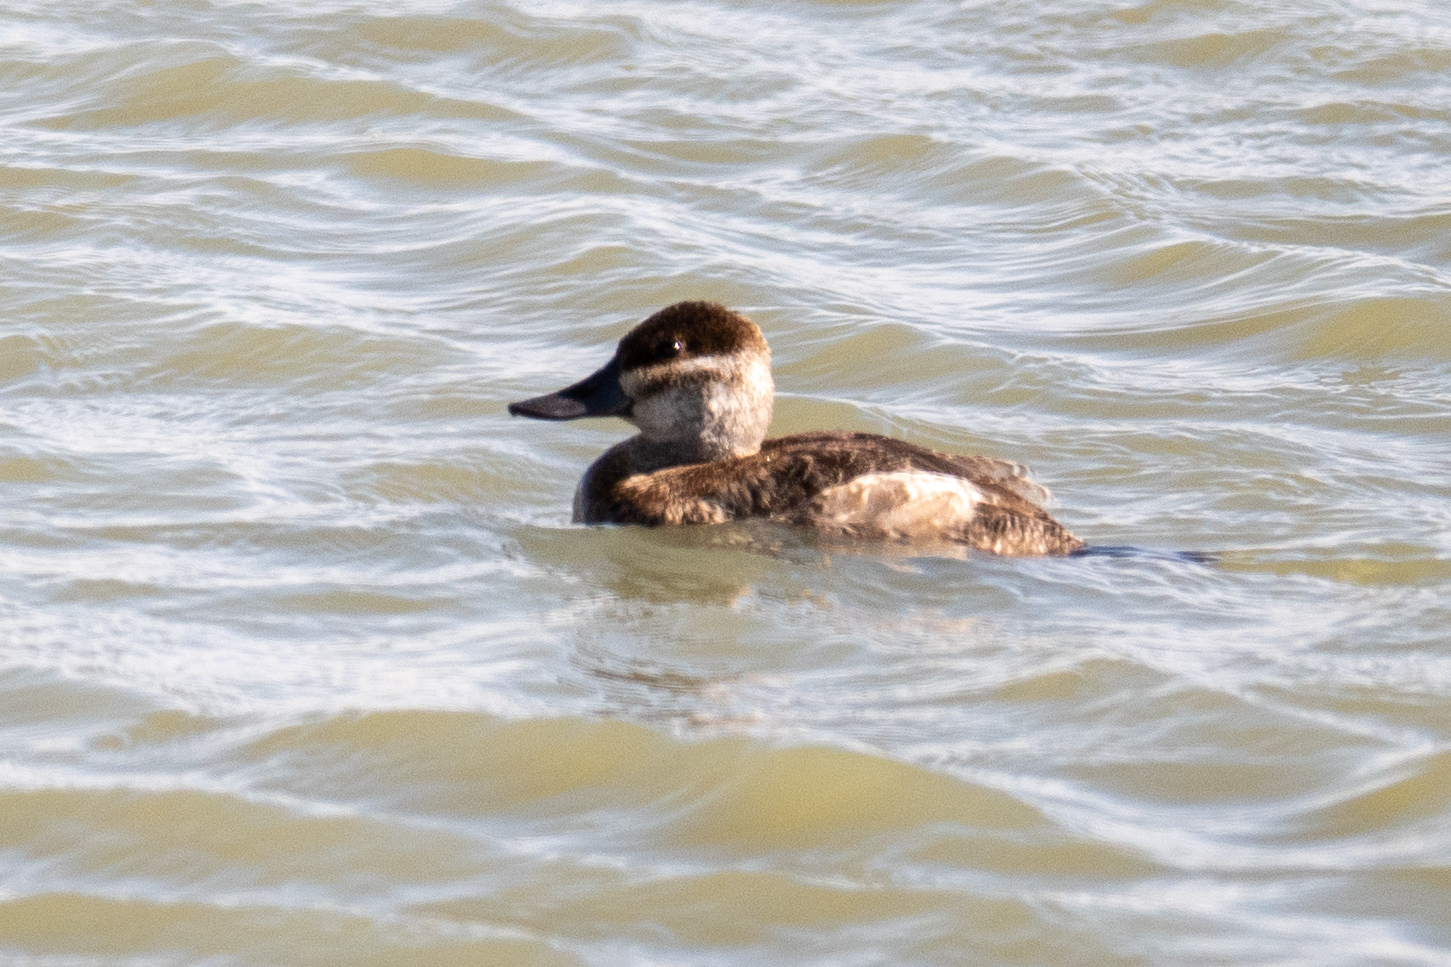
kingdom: Animalia
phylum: Chordata
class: Aves
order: Anseriformes
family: Anatidae
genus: Oxyura
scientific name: Oxyura jamaicensis
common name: Ruddy duck
